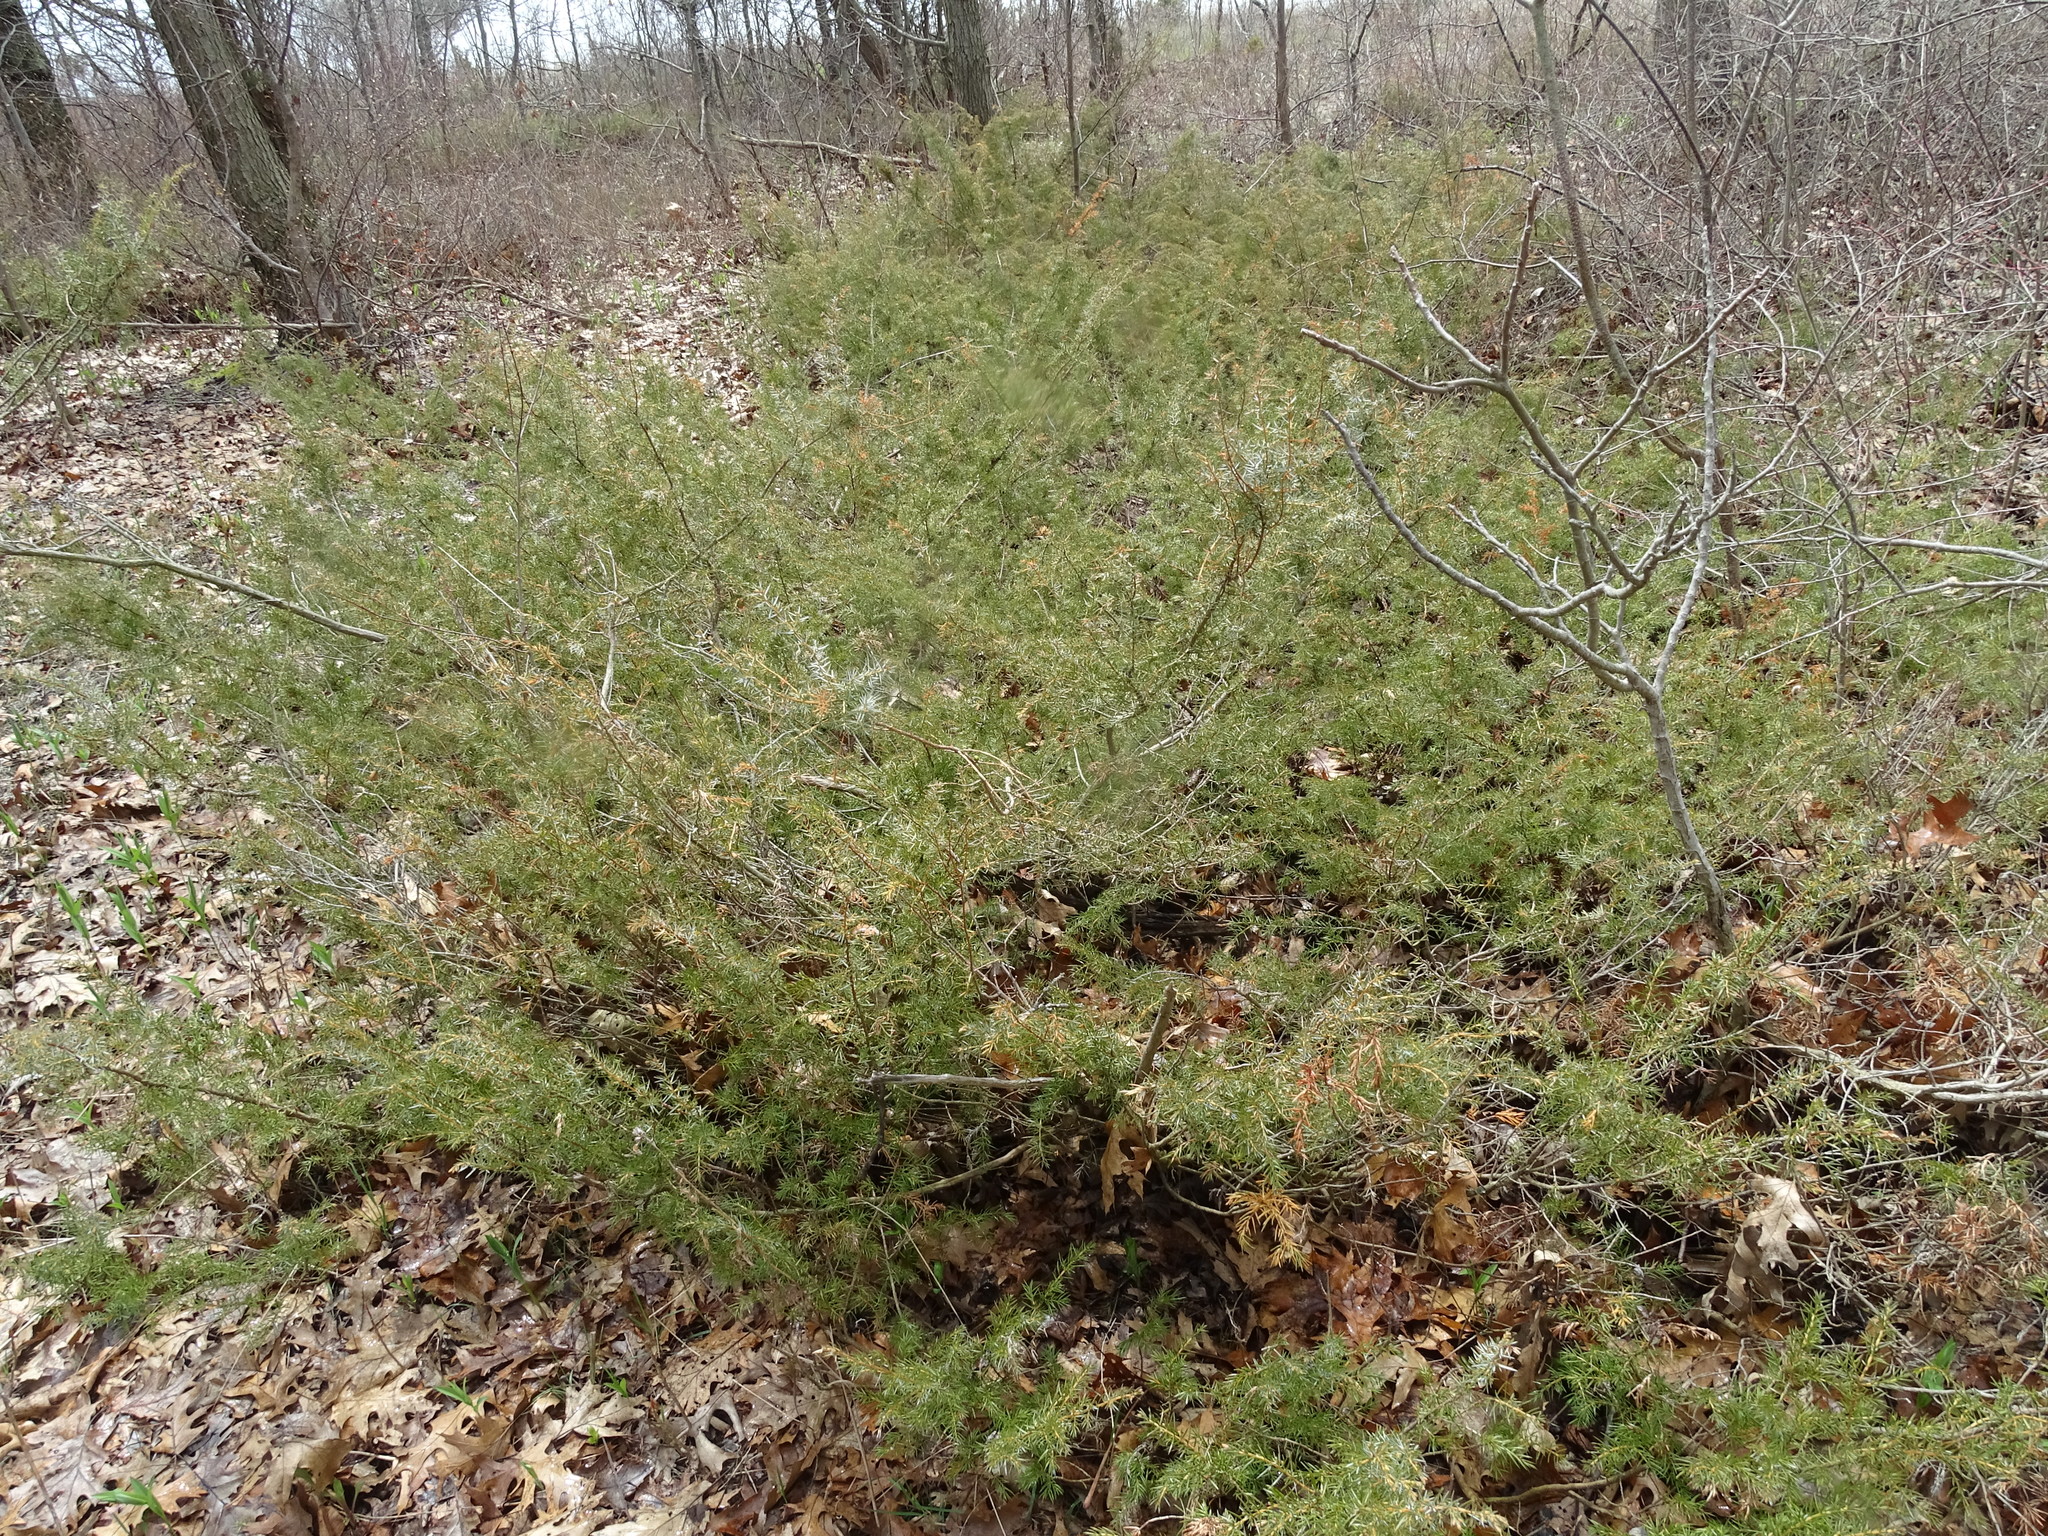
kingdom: Plantae
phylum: Tracheophyta
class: Pinopsida
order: Pinales
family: Cupressaceae
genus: Juniperus
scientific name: Juniperus communis
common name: Common juniper
